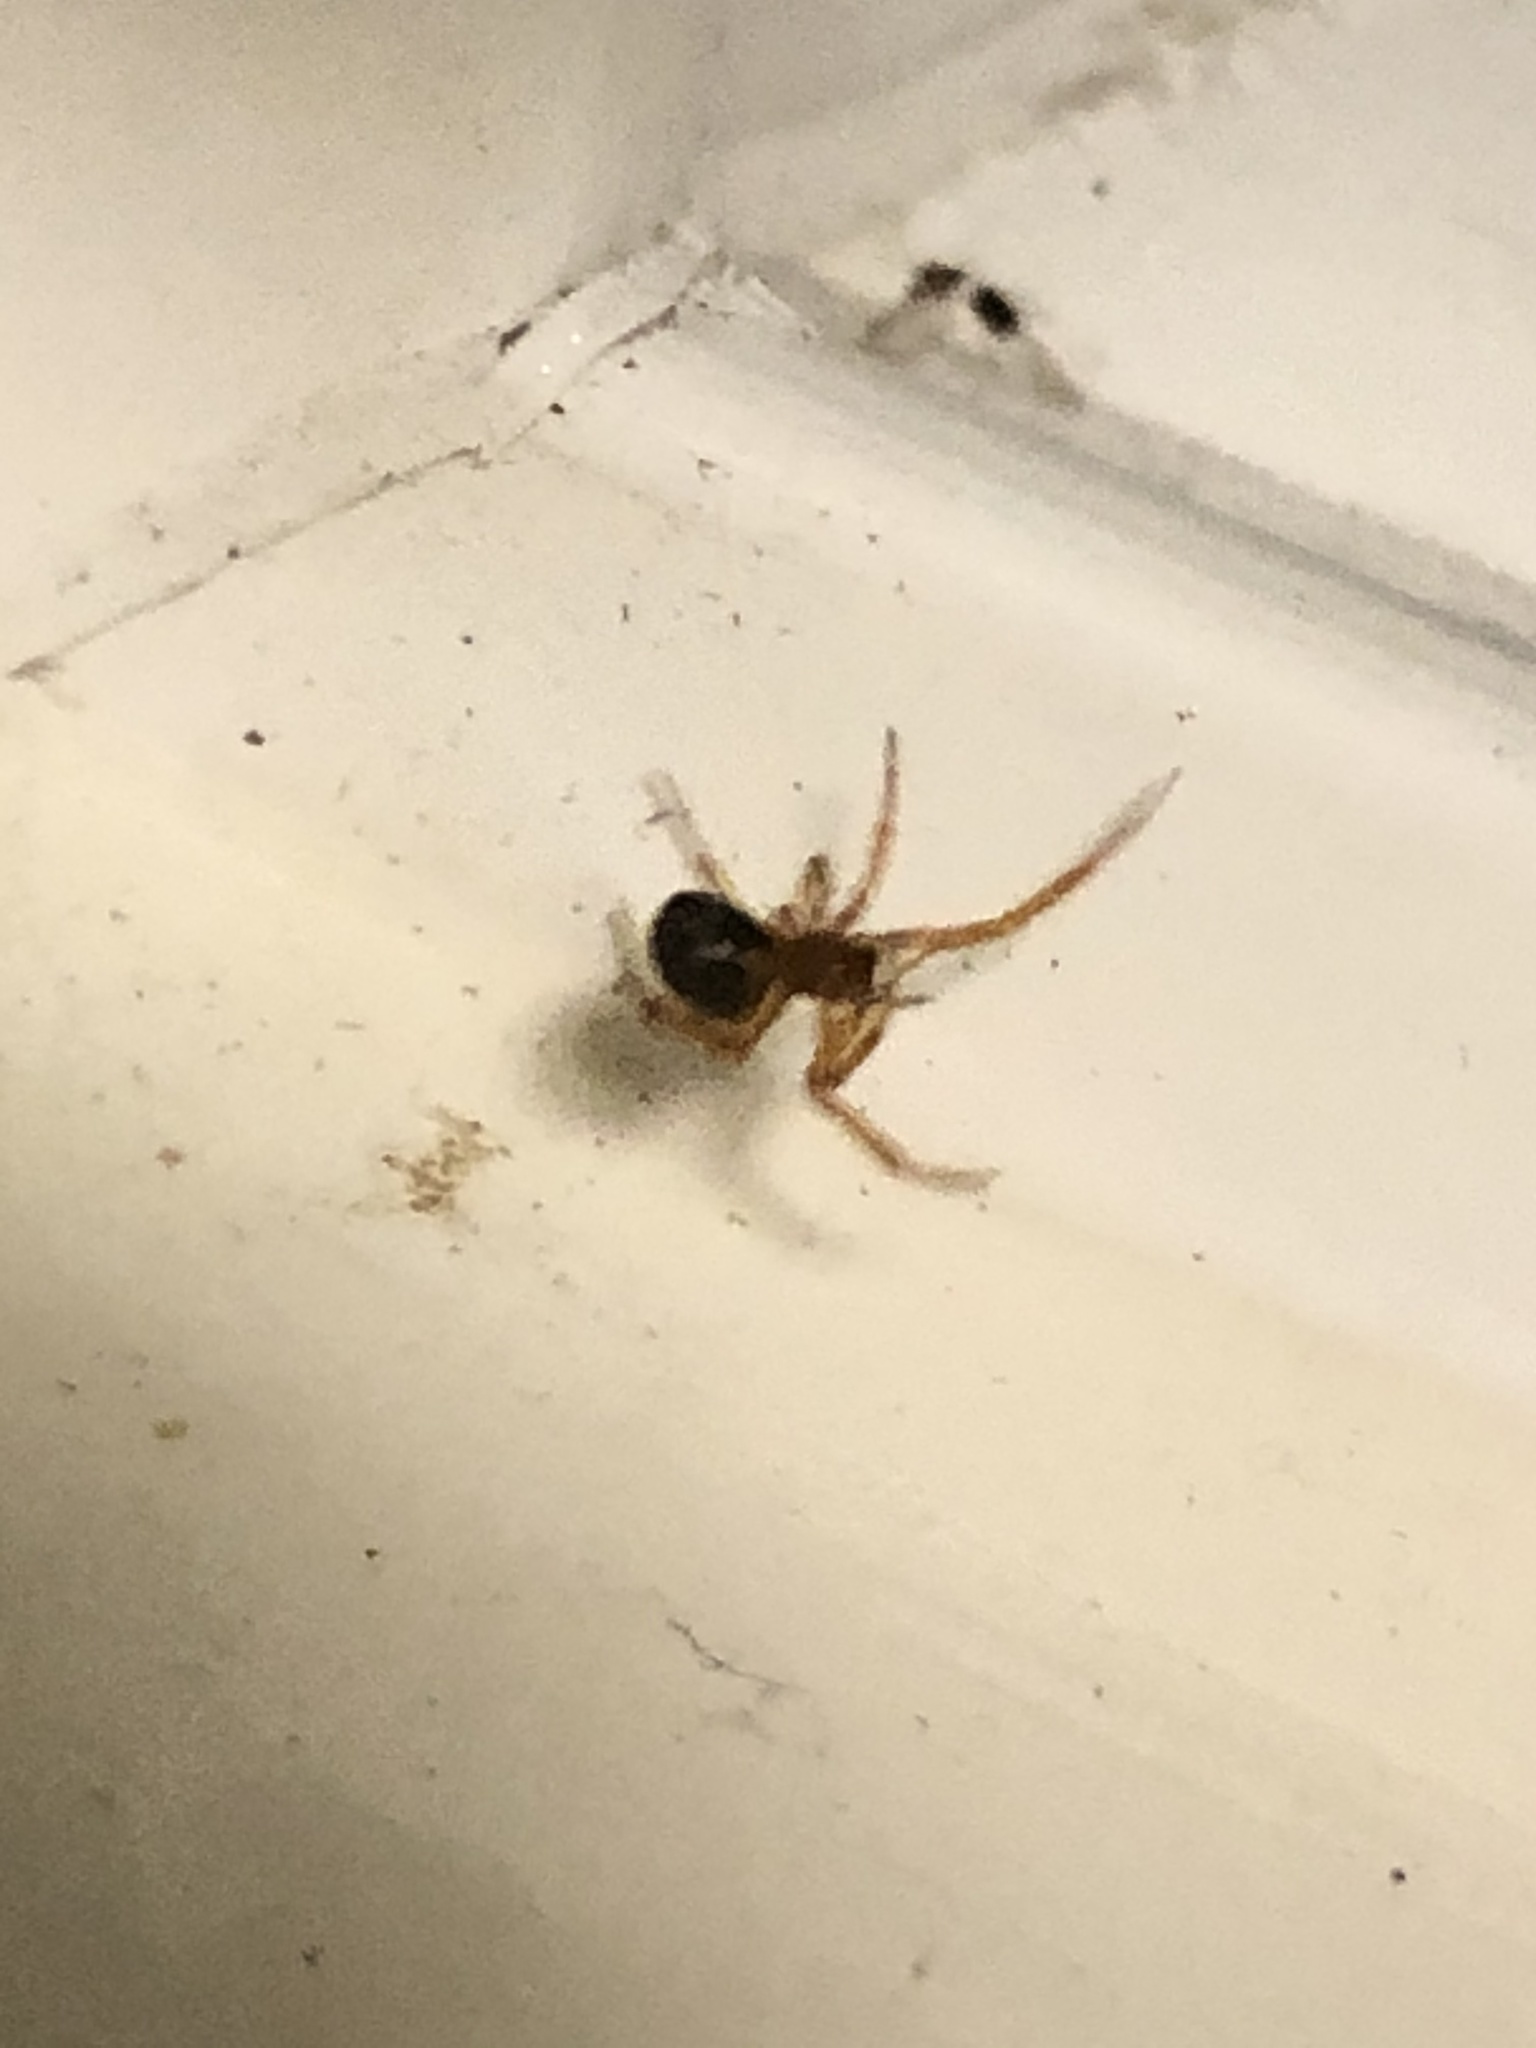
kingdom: Animalia
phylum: Arthropoda
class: Arachnida
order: Araneae
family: Theridiidae
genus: Steatoda
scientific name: Steatoda nobilis
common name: Cobweb weaver
